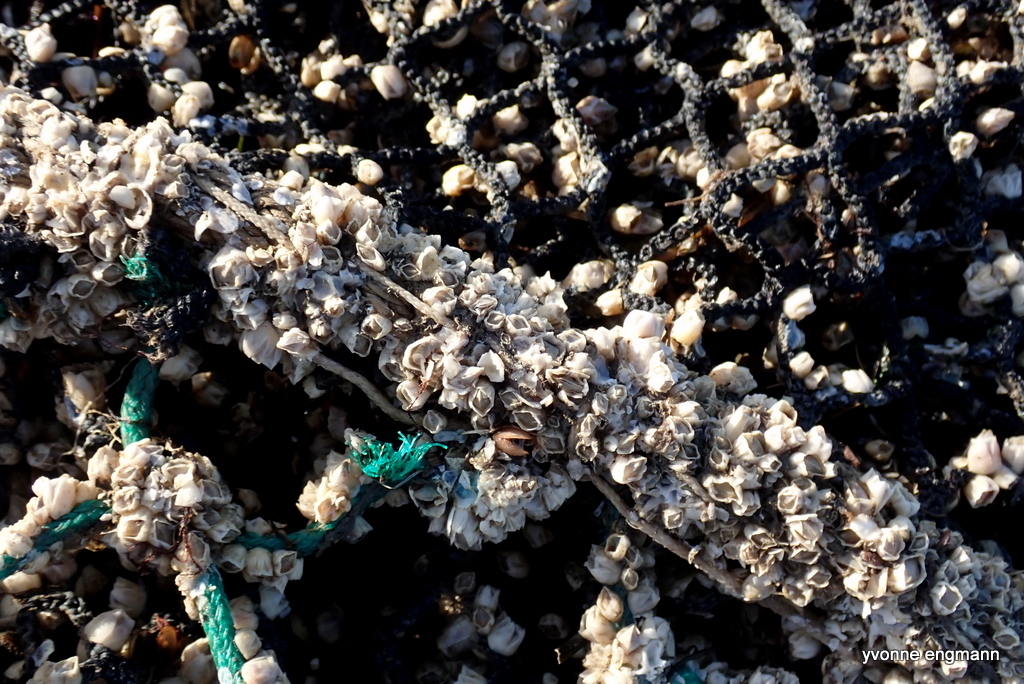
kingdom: Animalia
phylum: Arthropoda
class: Maxillopoda
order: Sessilia
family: Balanidae
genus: Amphibalanus
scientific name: Amphibalanus improvisus
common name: Bay barnacle
